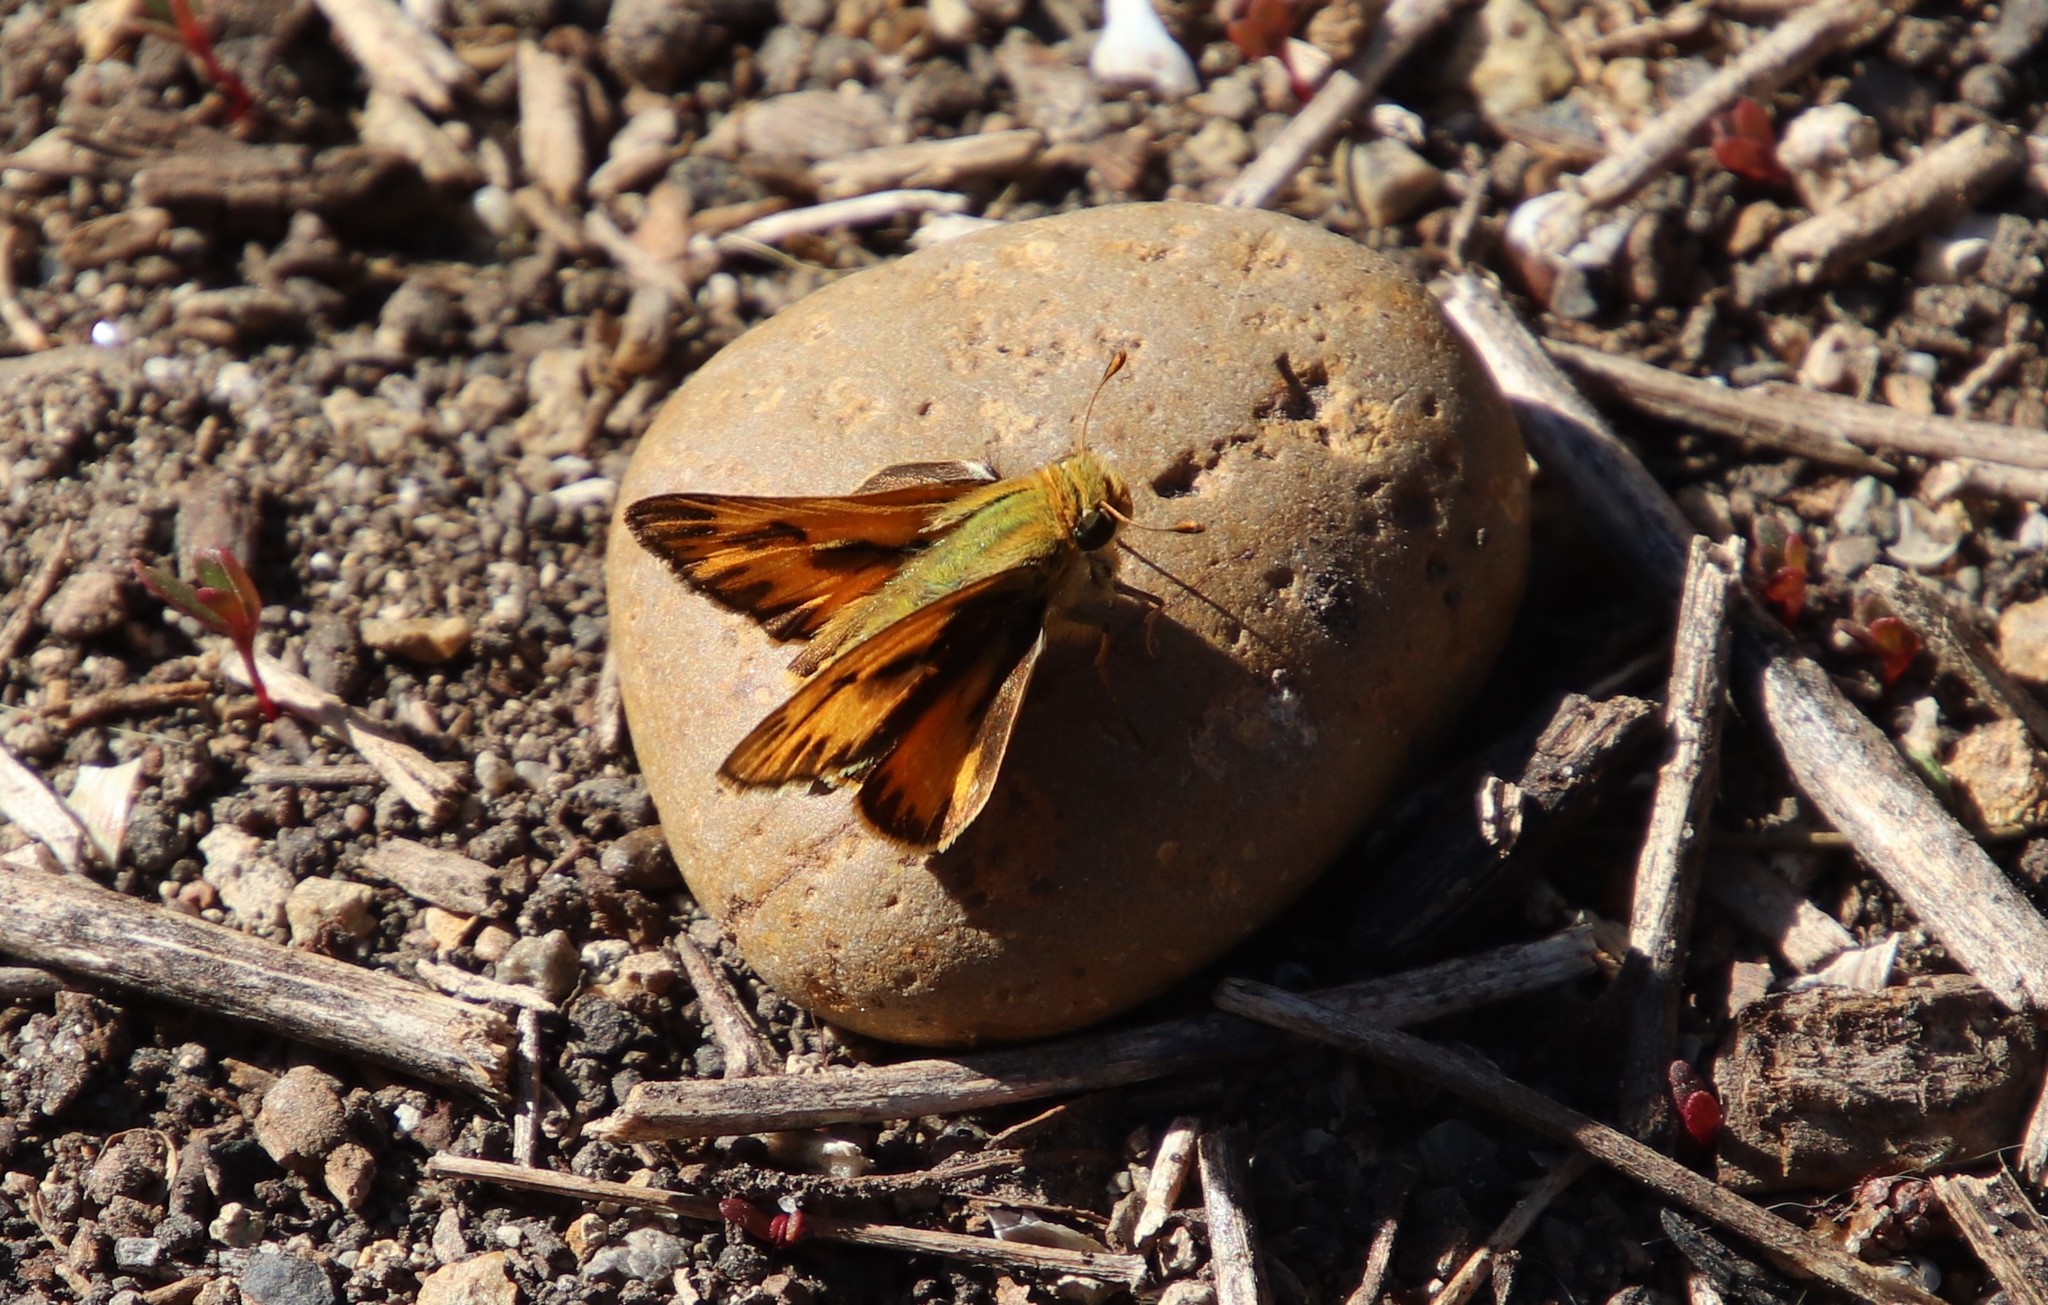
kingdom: Animalia
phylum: Arthropoda
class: Insecta
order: Lepidoptera
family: Hesperiidae
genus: Hylephila
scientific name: Hylephila phyleus
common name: Fiery skipper
